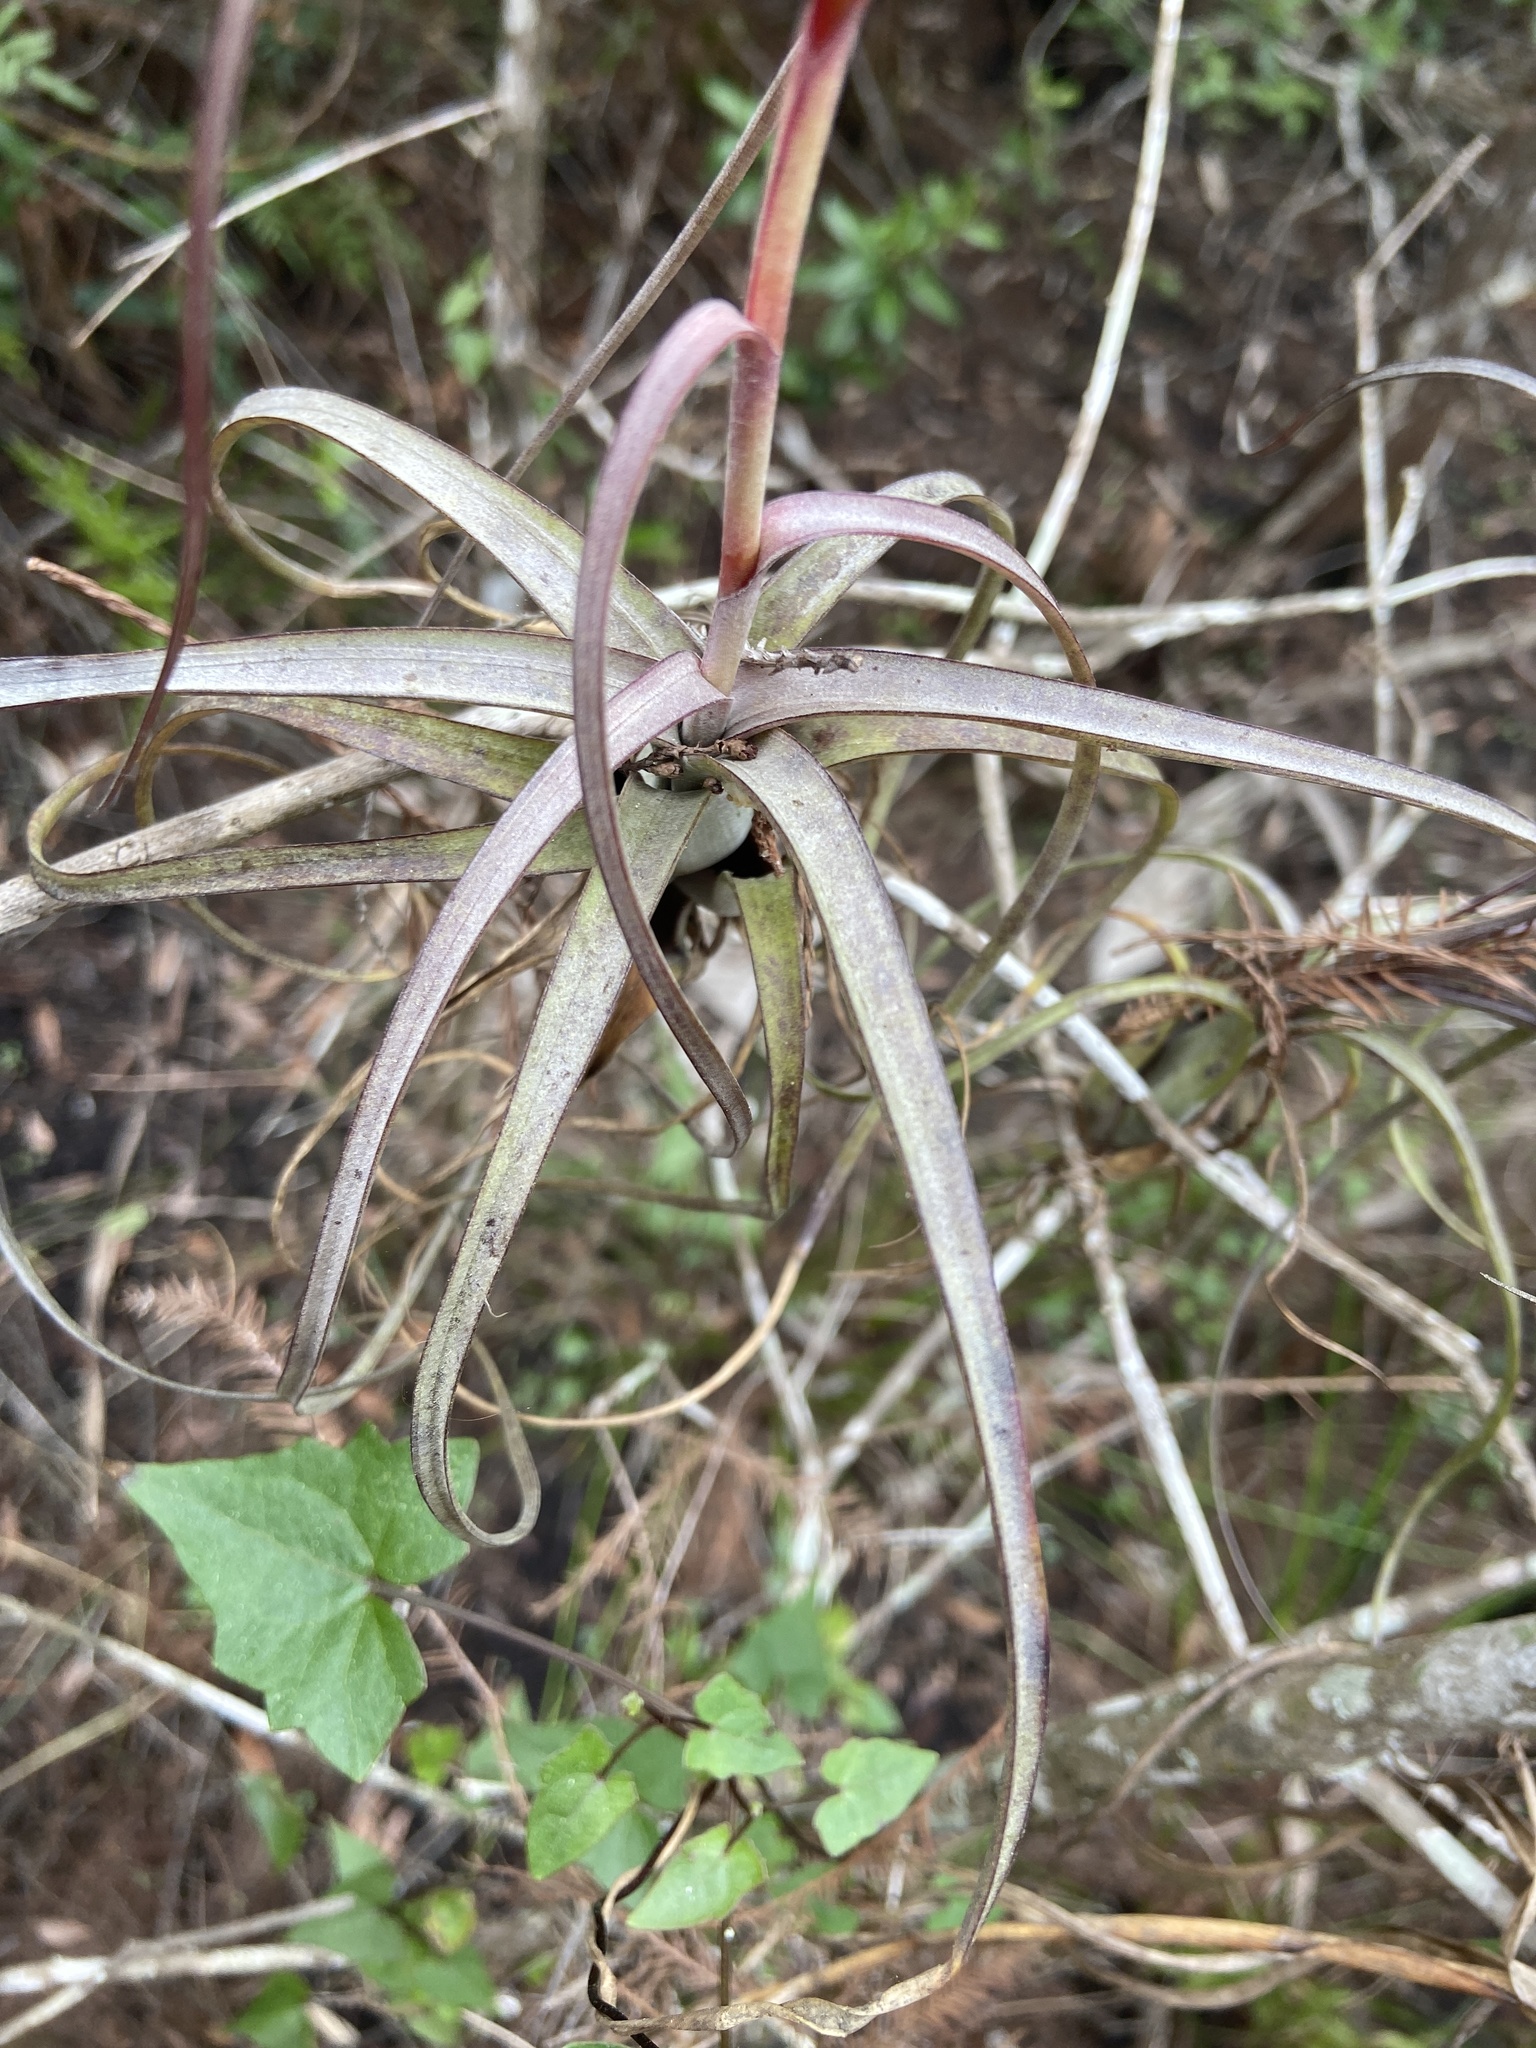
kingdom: Plantae
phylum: Tracheophyta
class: Liliopsida
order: Poales
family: Bromeliaceae
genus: Tillandsia
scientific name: Tillandsia balbisiana
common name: Northern needleleaf
